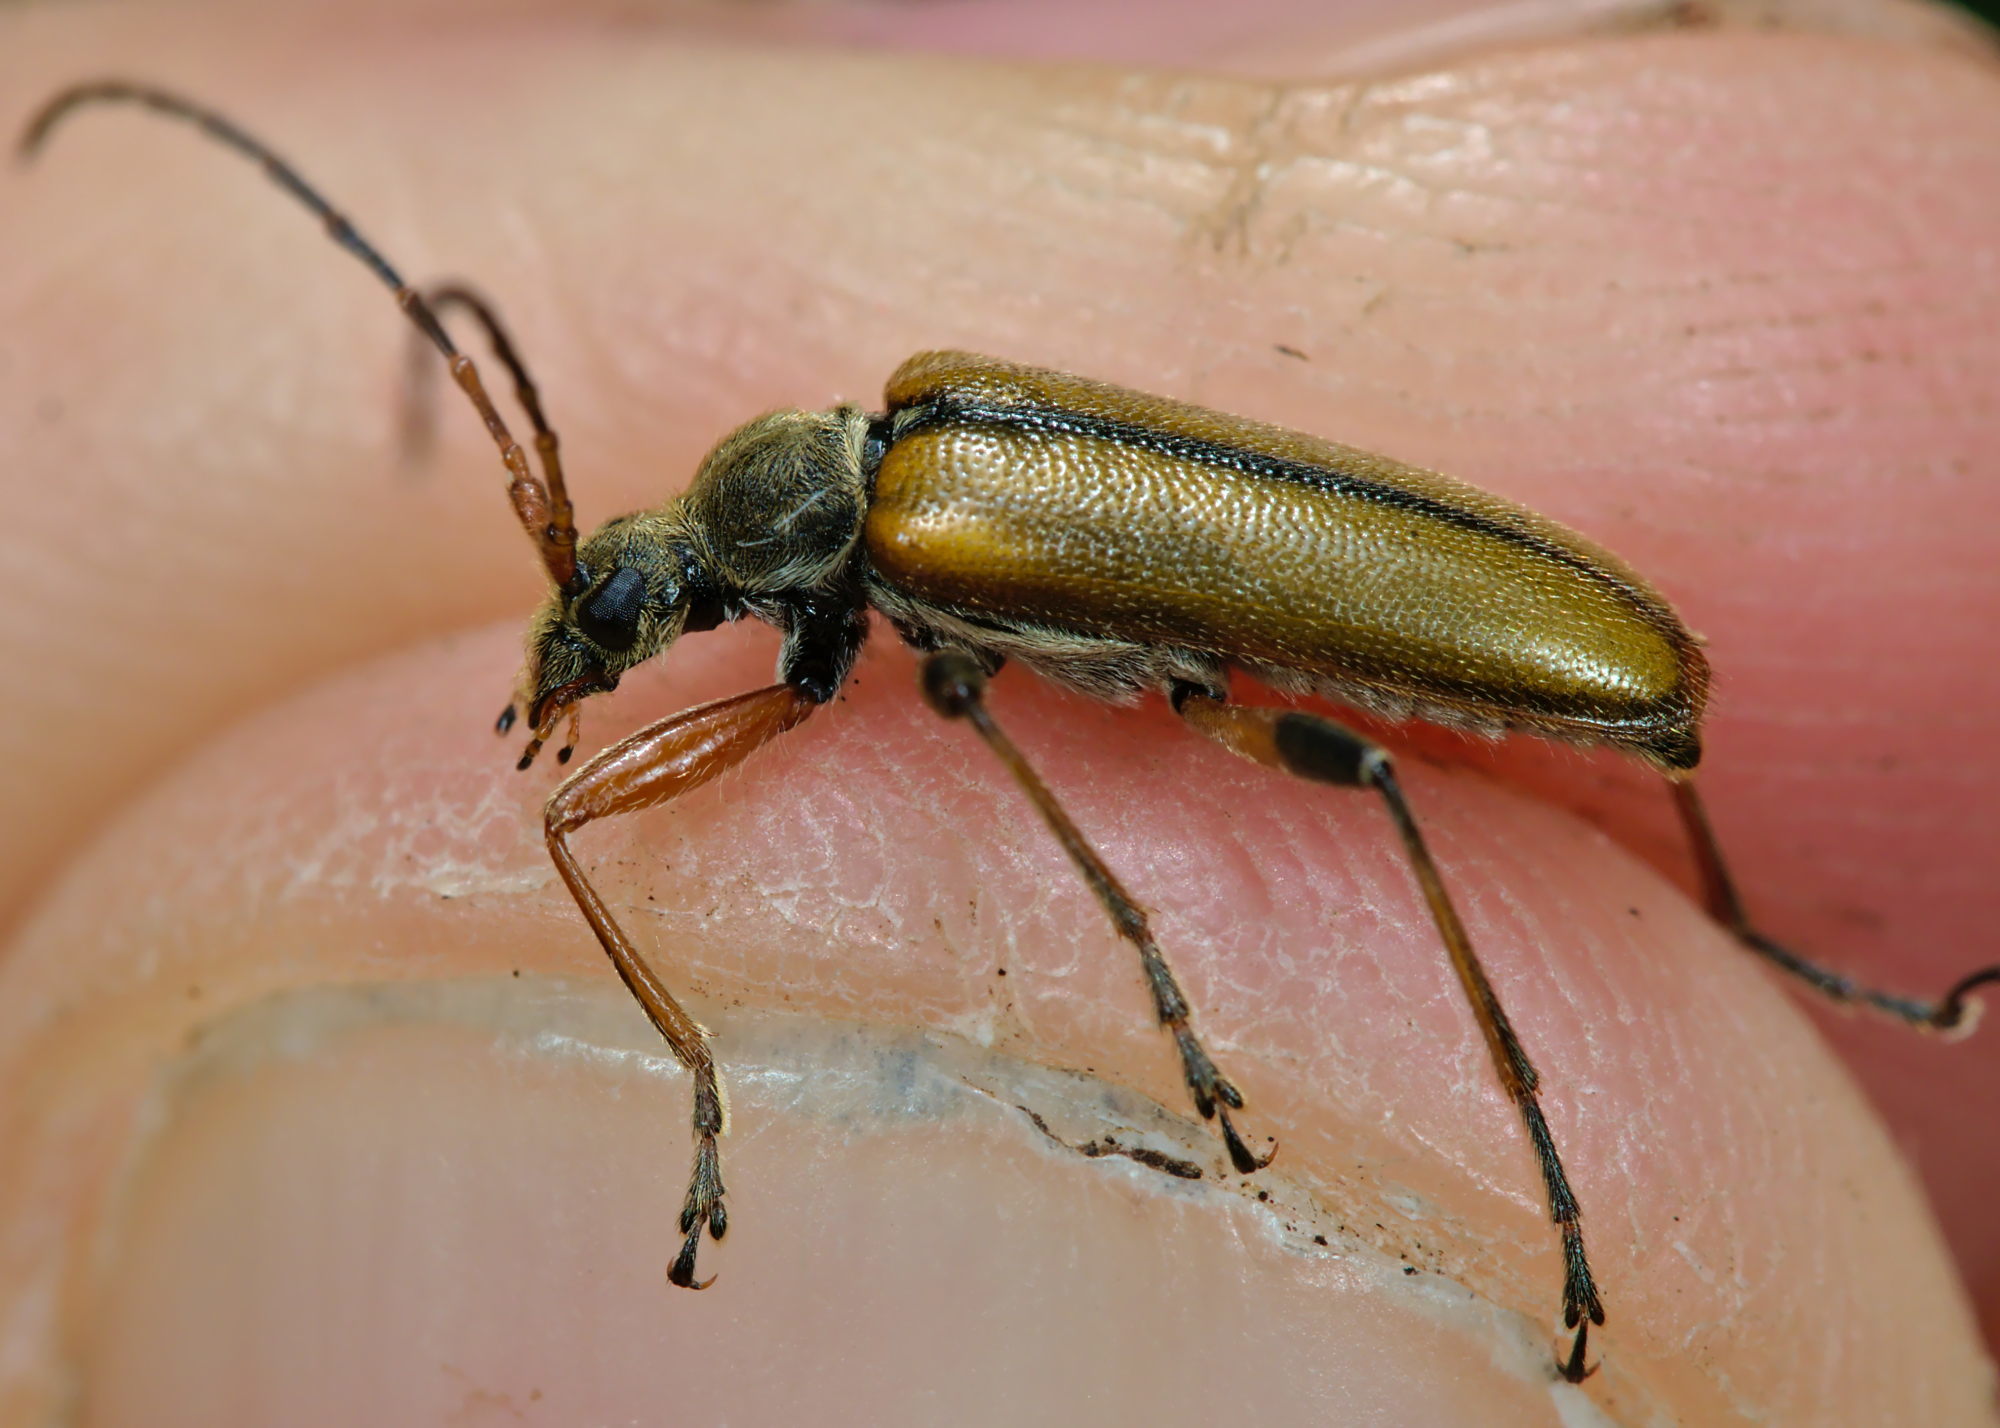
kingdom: Animalia
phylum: Arthropoda
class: Insecta
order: Coleoptera
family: Cerambycidae
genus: Cortodera
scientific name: Cortodera humeralis
